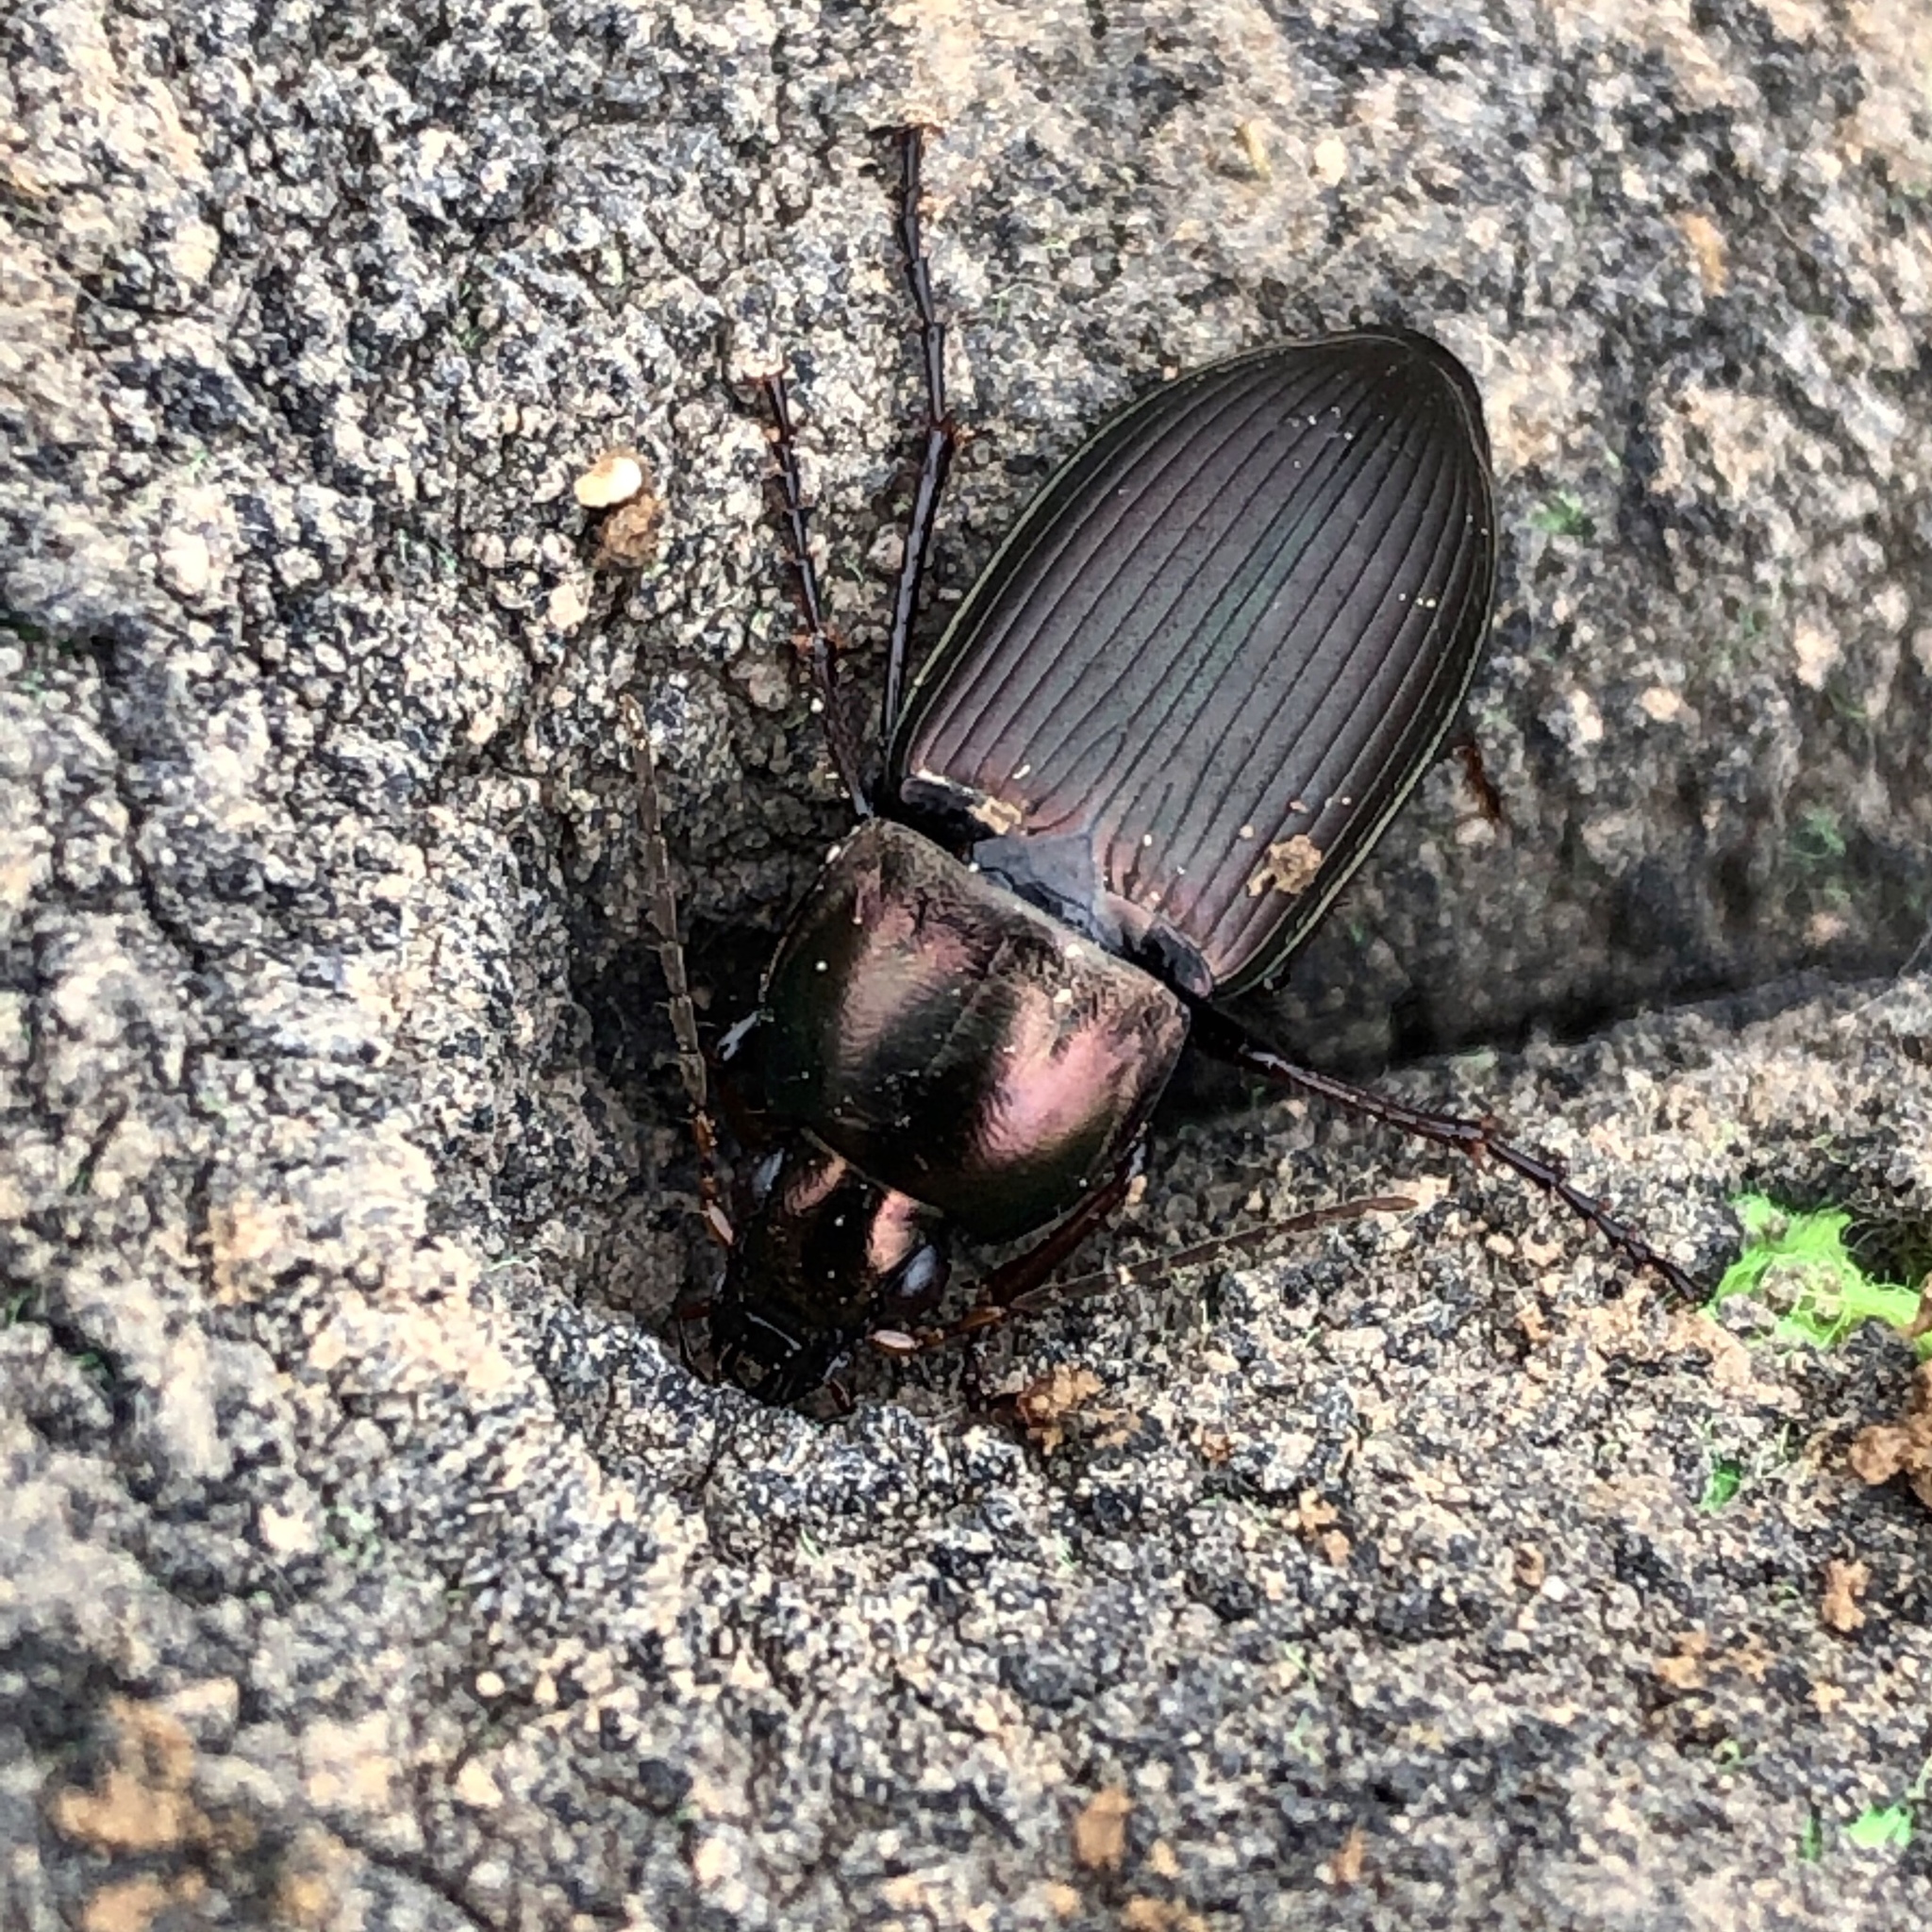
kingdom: Animalia
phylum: Arthropoda
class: Insecta
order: Coleoptera
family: Carabidae
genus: Poecilus
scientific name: Poecilus lucublandus
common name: Woodland ground beetle
